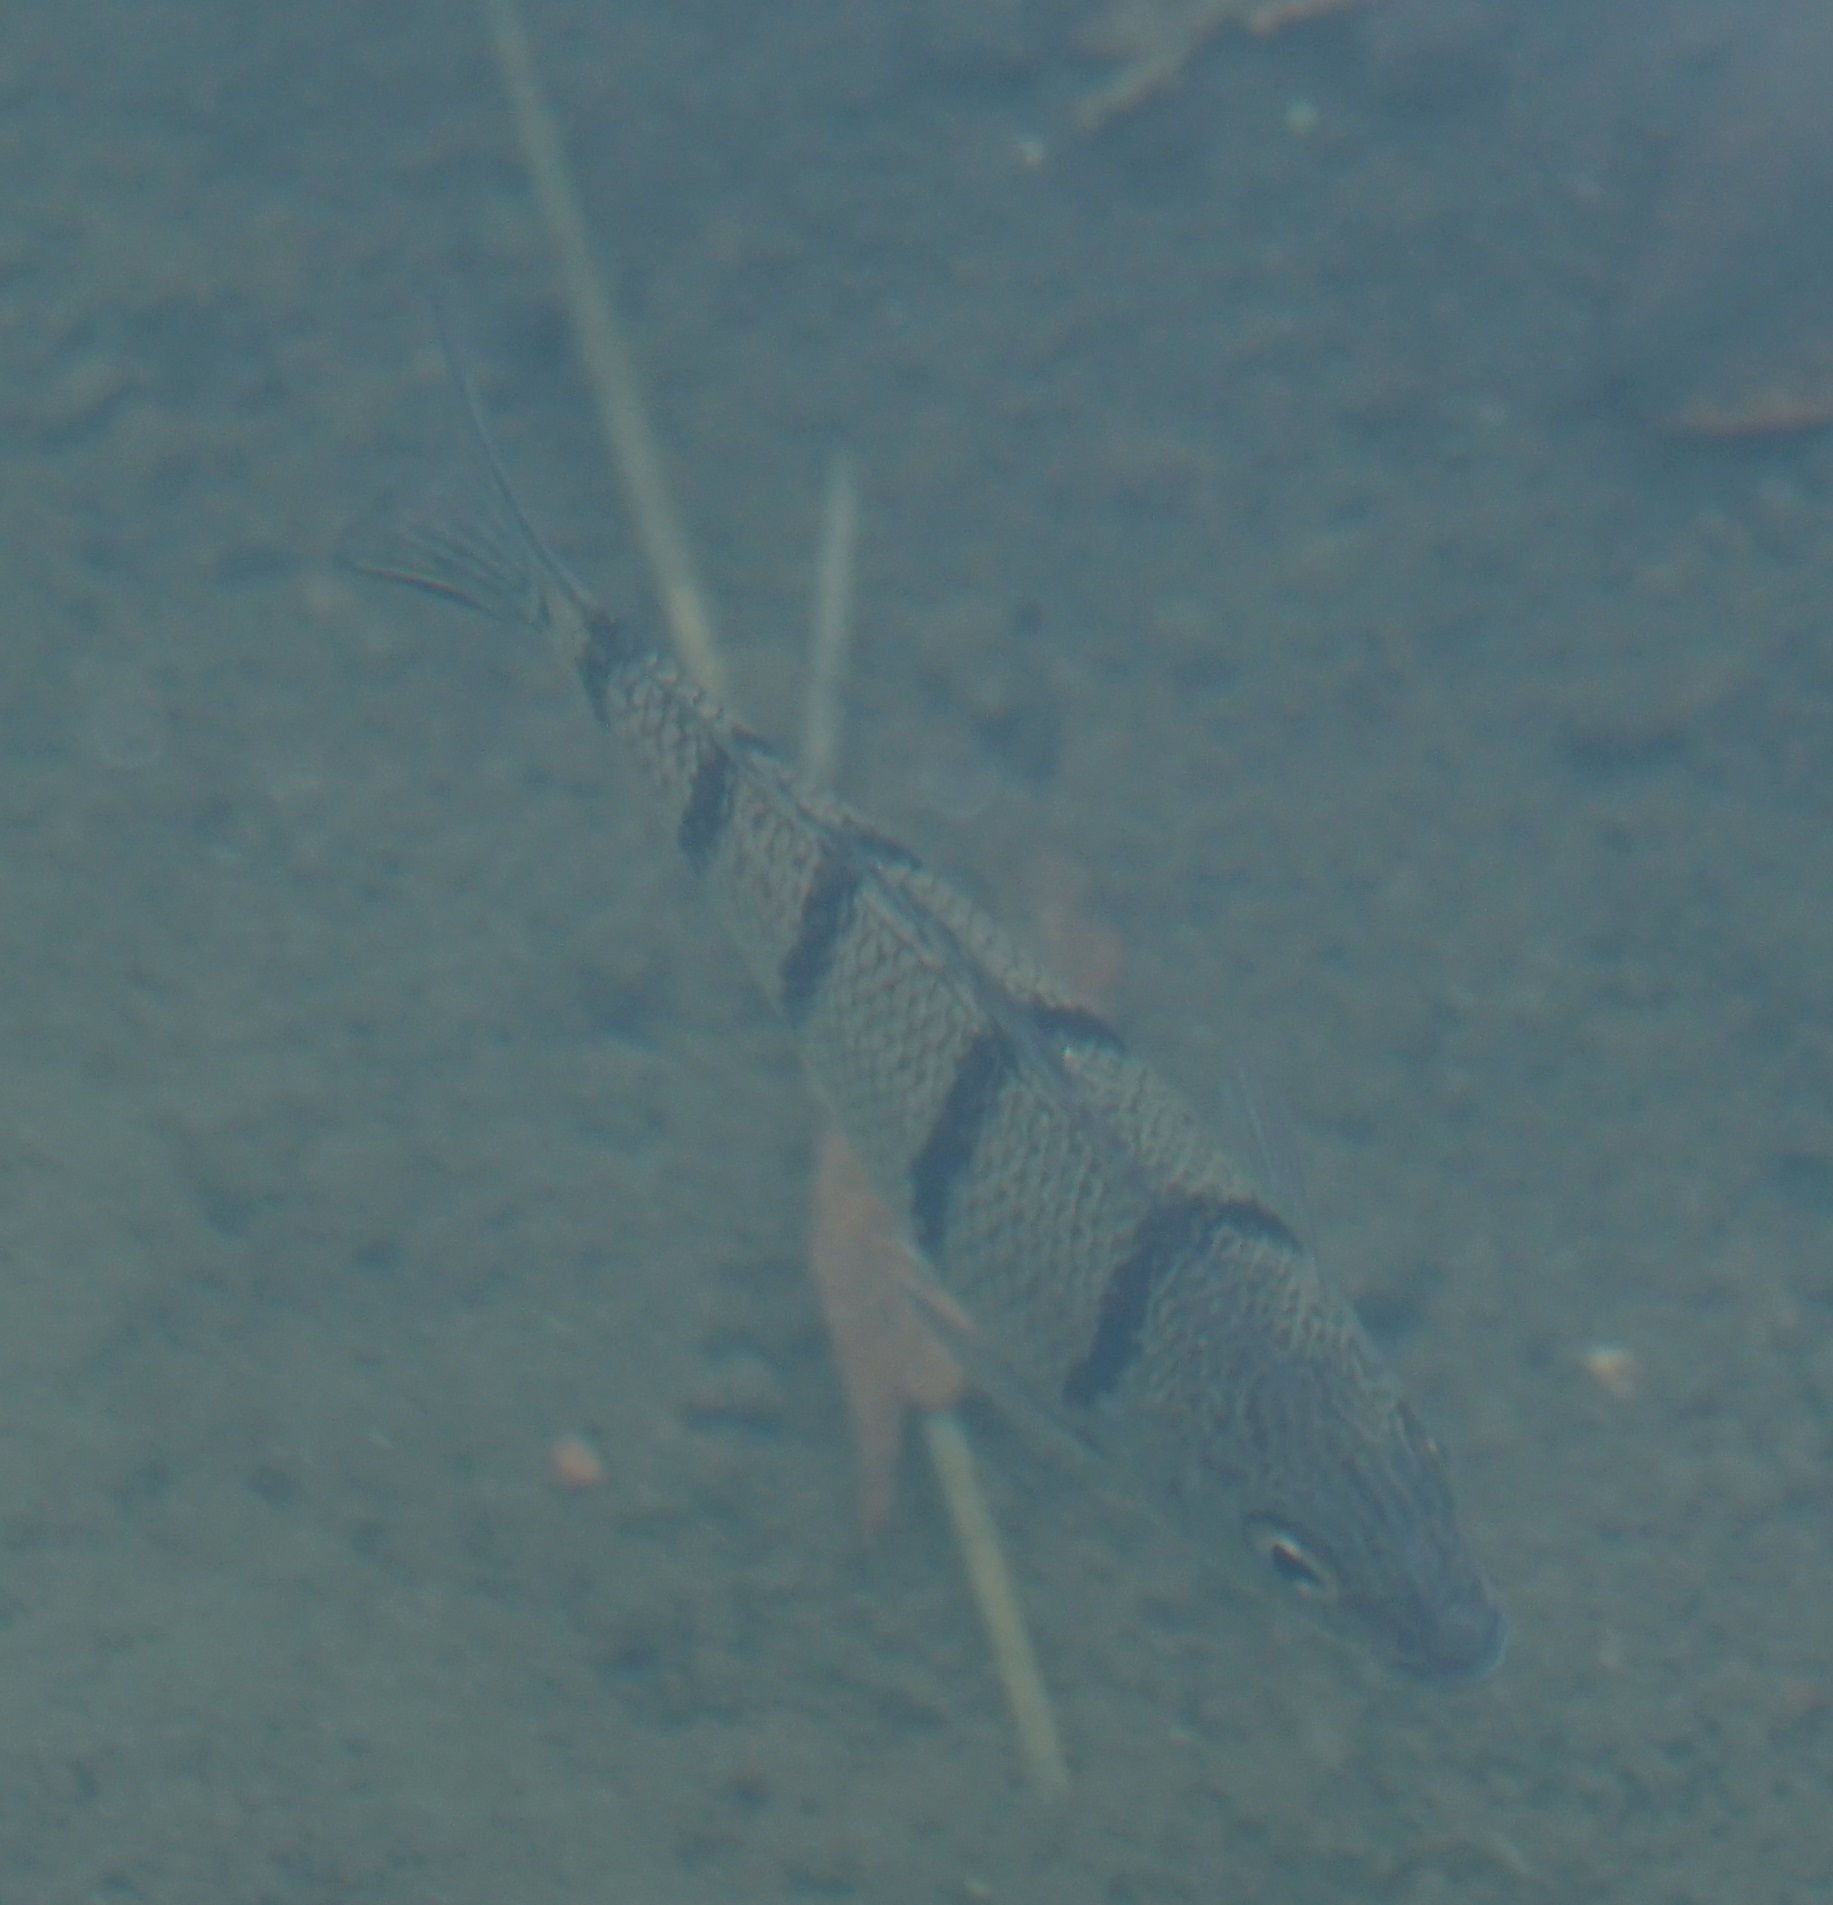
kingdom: Animalia
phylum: Chordata
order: Perciformes
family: Terapontidae
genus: Amniataba
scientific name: Amniataba percoides
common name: Banded grunter
